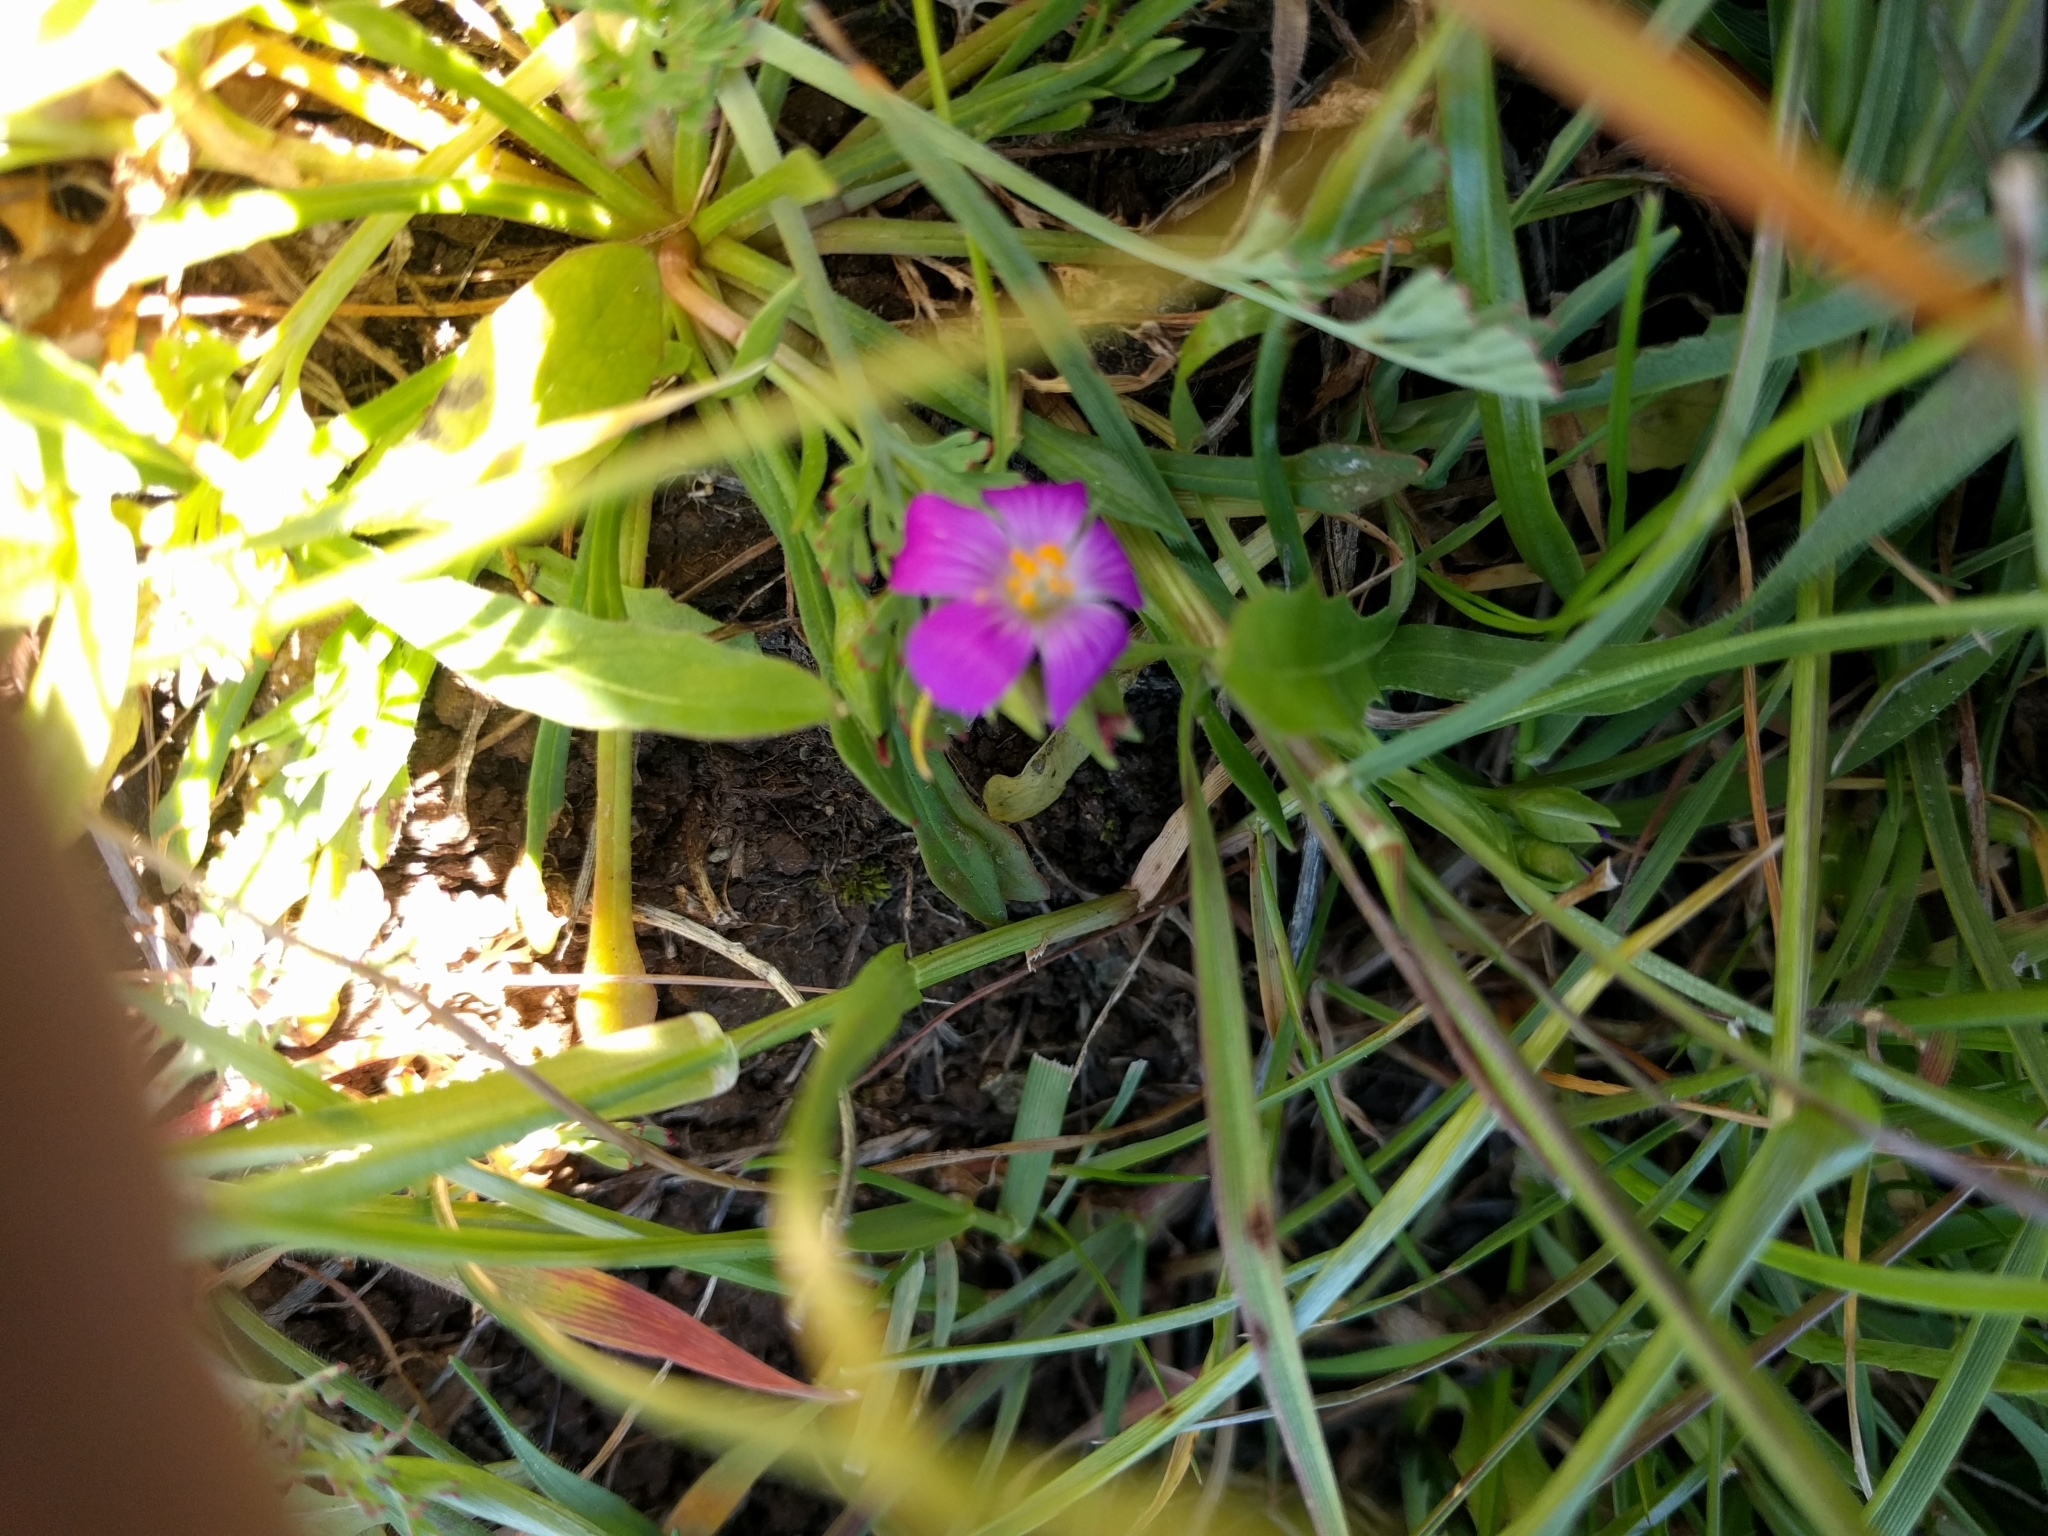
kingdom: Plantae
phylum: Tracheophyta
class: Magnoliopsida
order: Caryophyllales
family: Montiaceae
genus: Calandrinia
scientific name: Calandrinia menziesii
